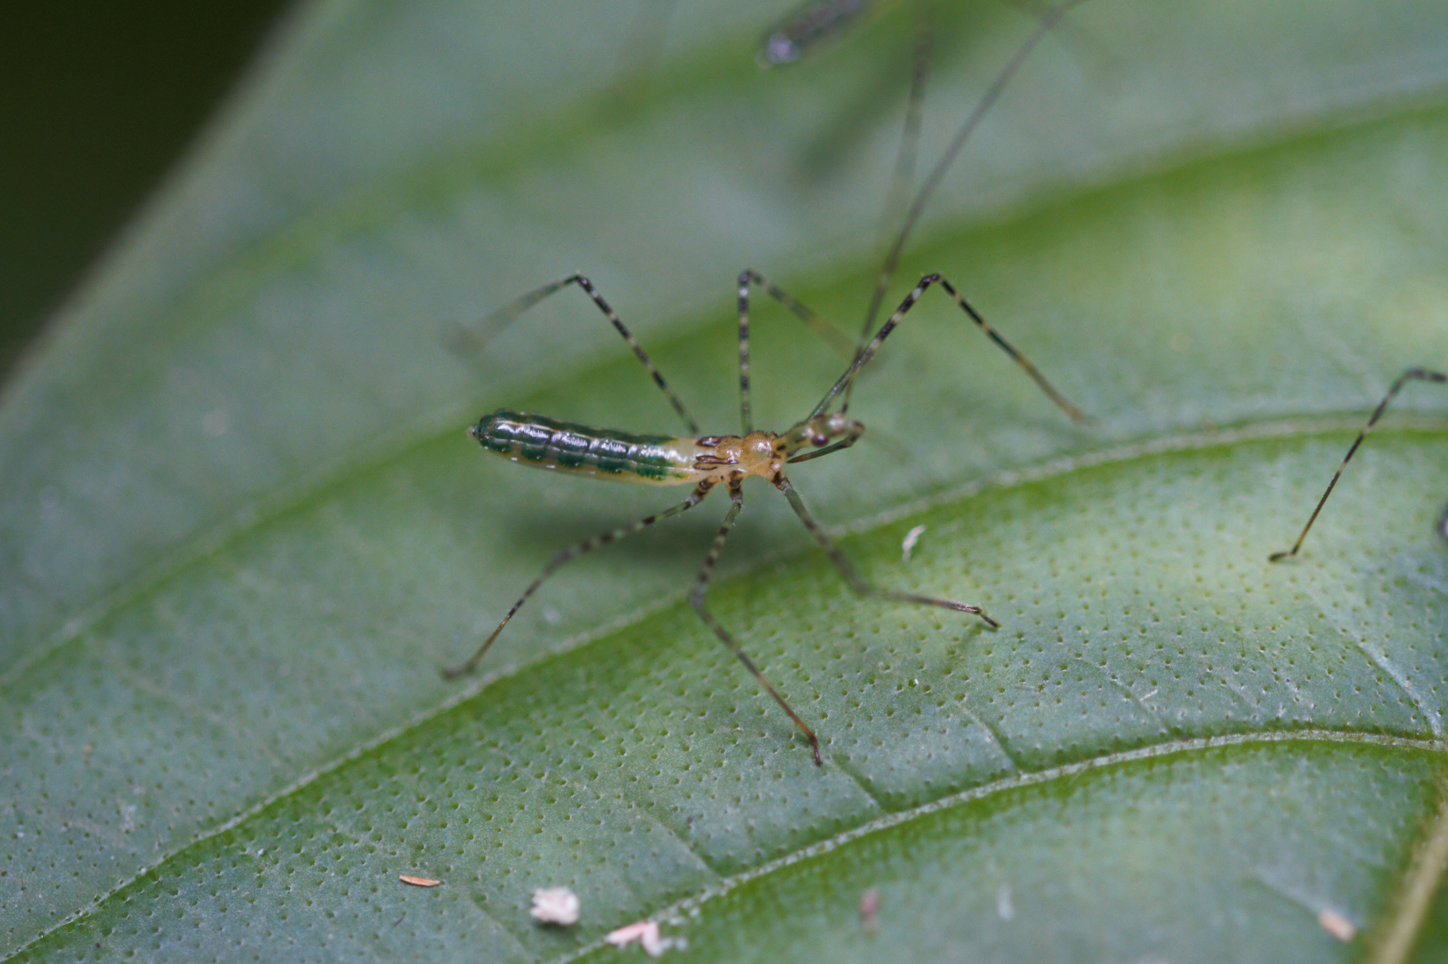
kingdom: Animalia
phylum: Arthropoda
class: Insecta
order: Hemiptera
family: Reduviidae
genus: Zelus
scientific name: Zelus annulosus
